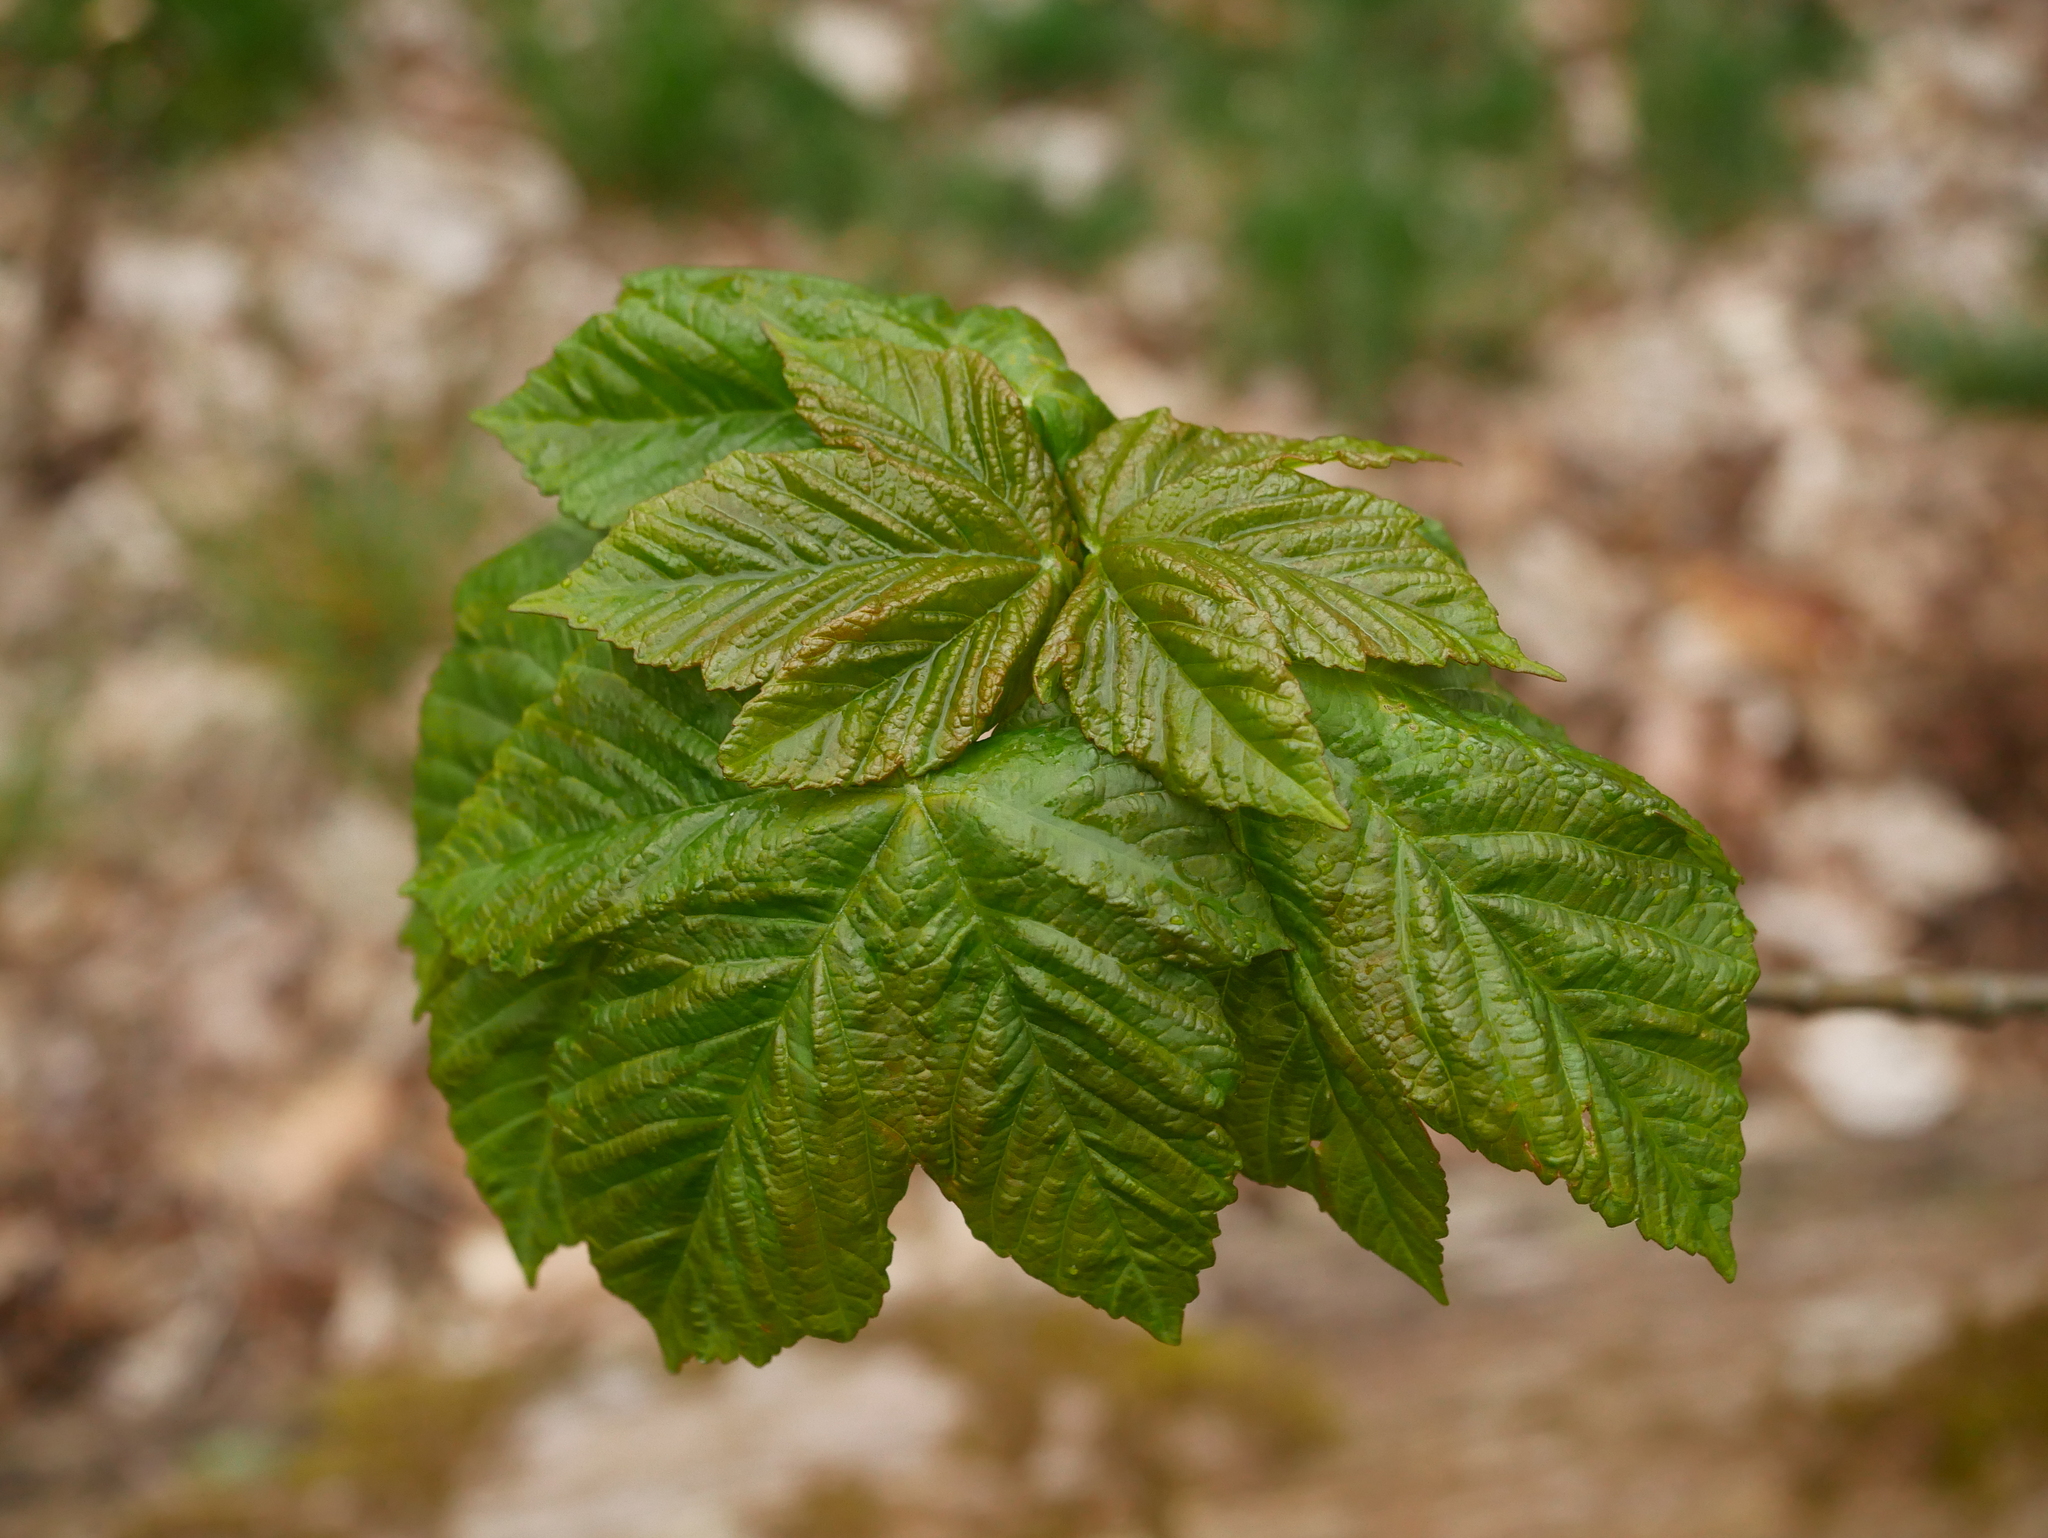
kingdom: Plantae
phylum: Tracheophyta
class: Magnoliopsida
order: Sapindales
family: Sapindaceae
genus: Acer
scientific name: Acer pseudoplatanus
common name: Sycamore
